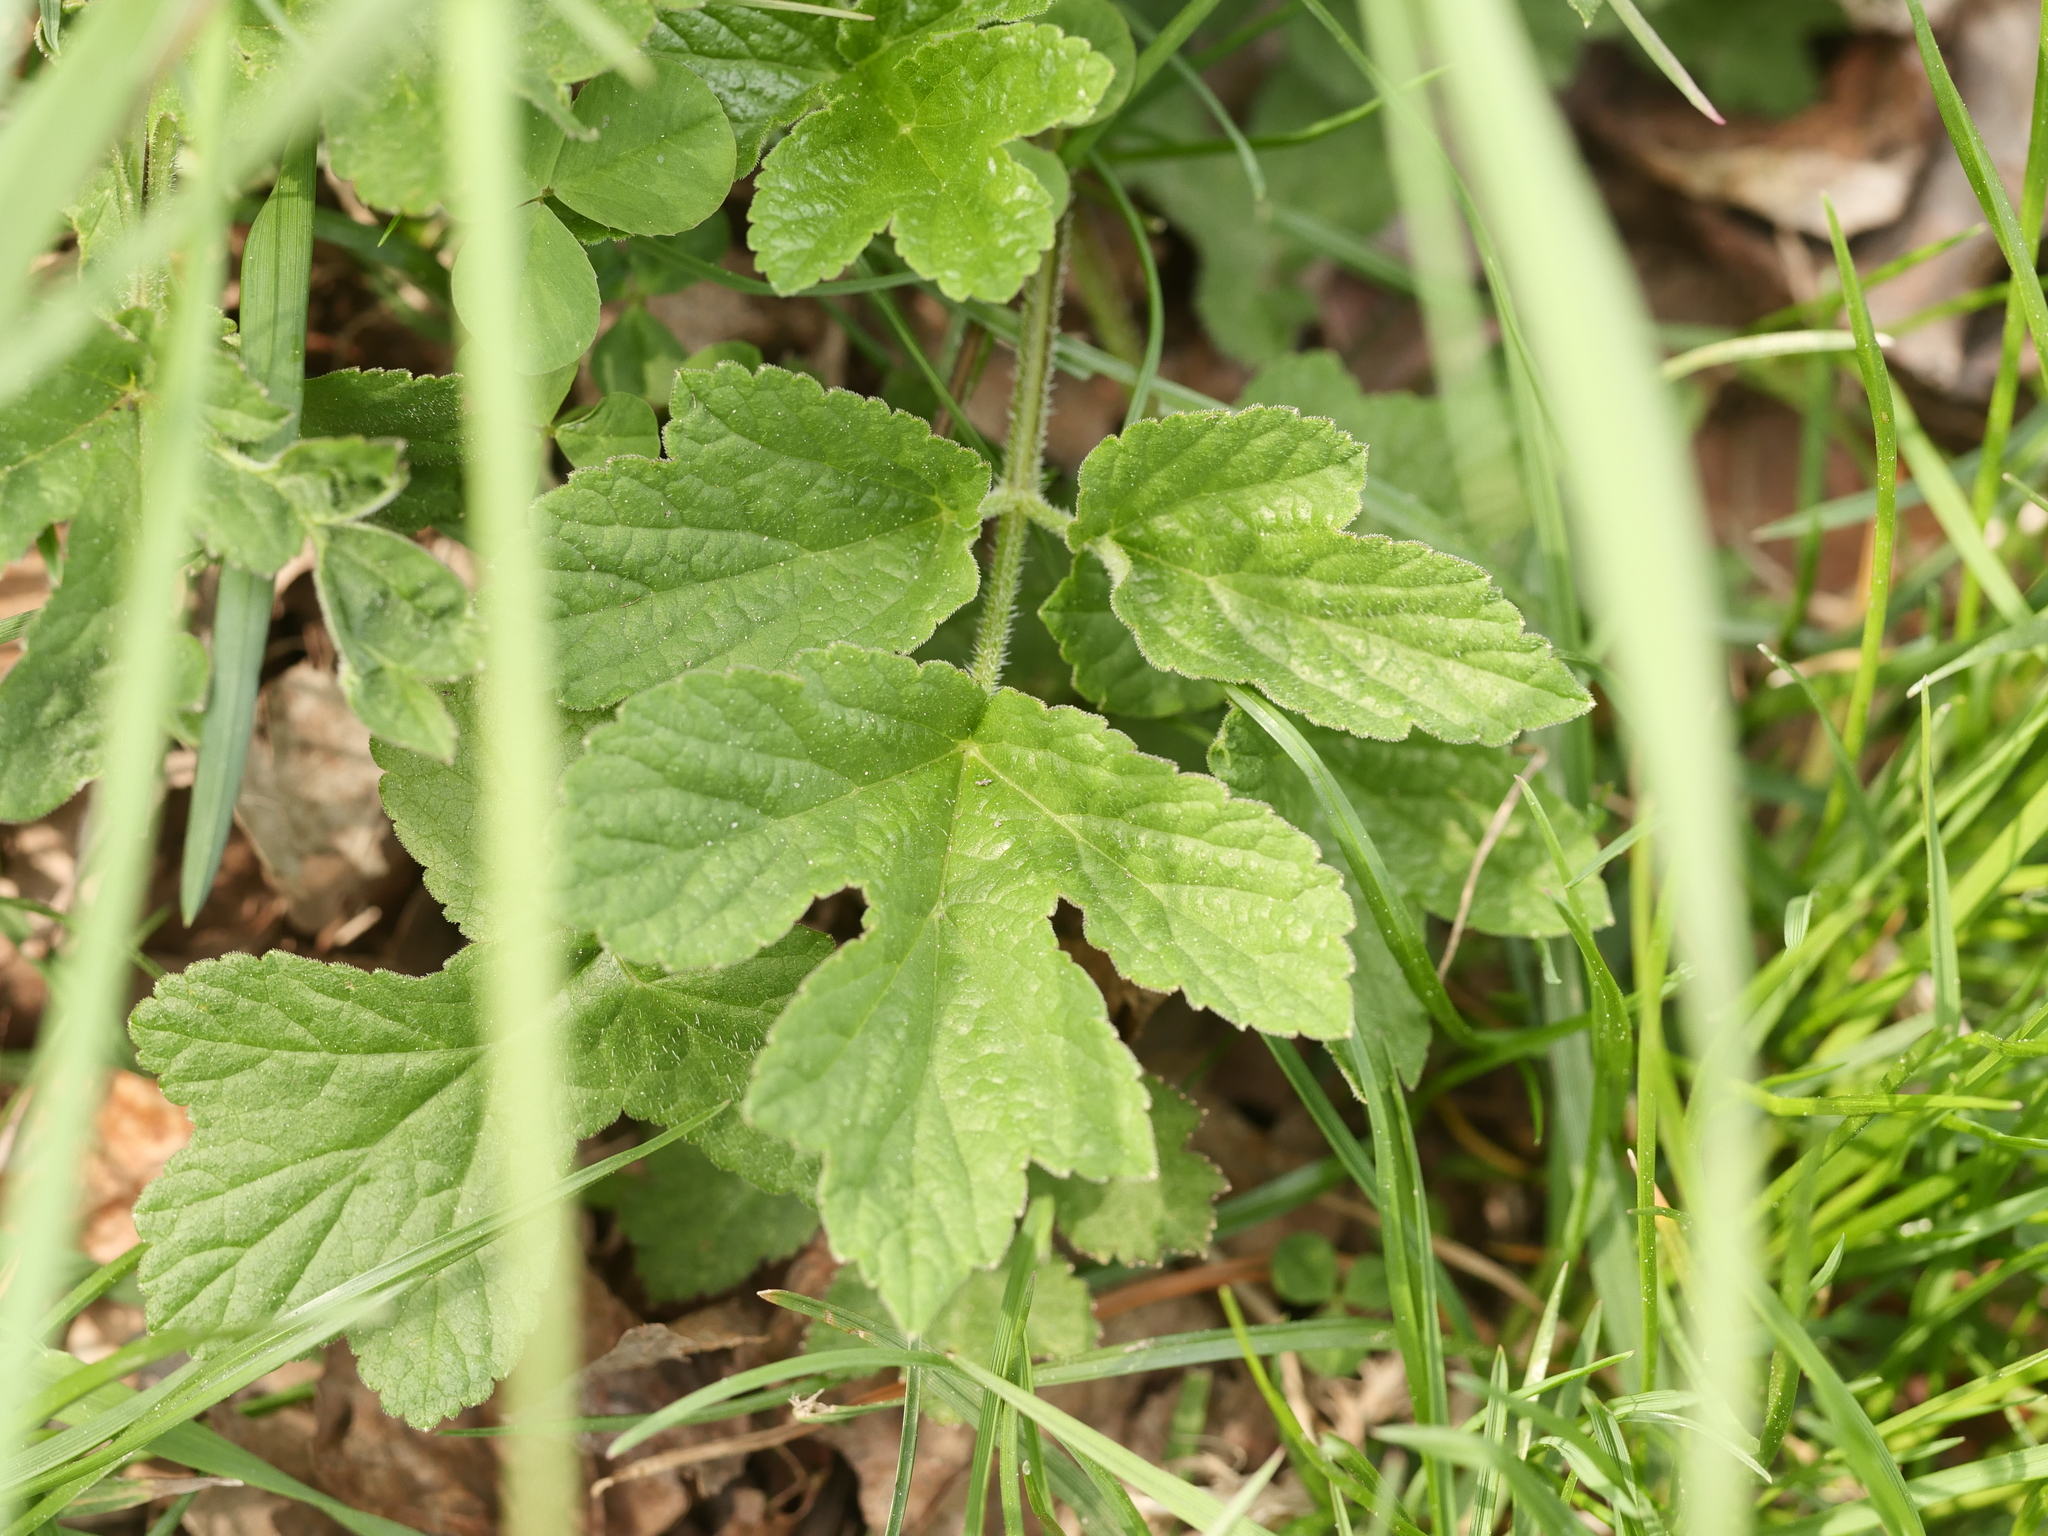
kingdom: Plantae
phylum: Tracheophyta
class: Magnoliopsida
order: Apiales
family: Apiaceae
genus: Heracleum
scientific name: Heracleum sphondylium
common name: Hogweed
